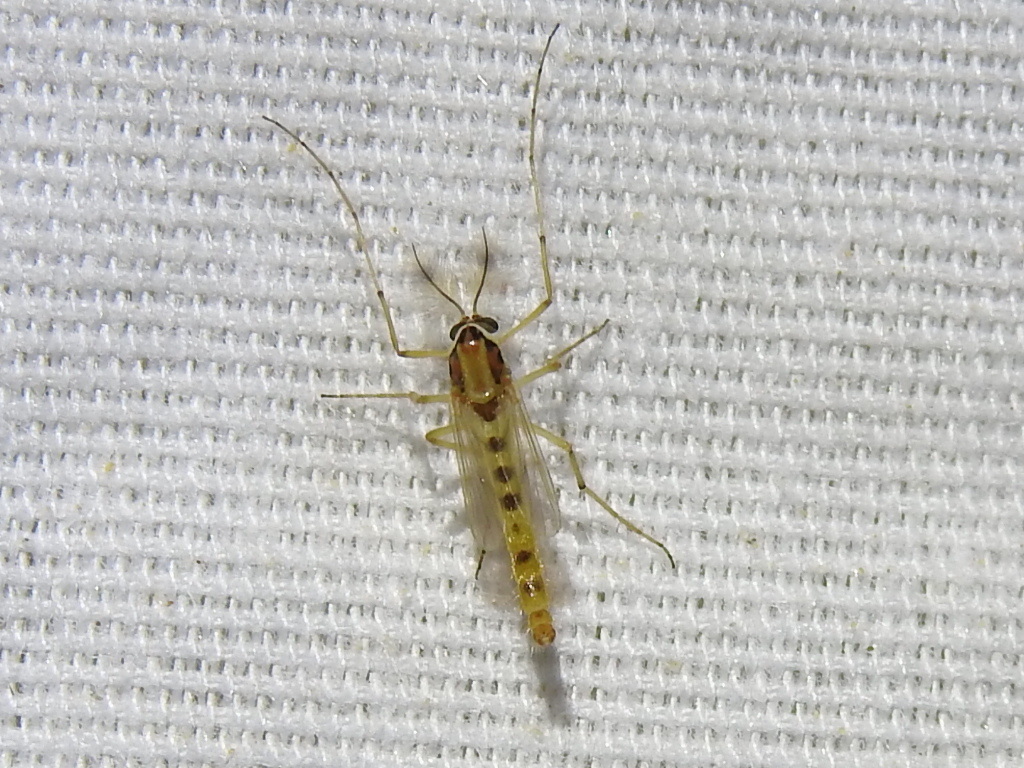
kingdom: Animalia
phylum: Arthropoda
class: Insecta
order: Diptera
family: Chironomidae
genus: Goeldichironomus
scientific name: Goeldichironomus carus
